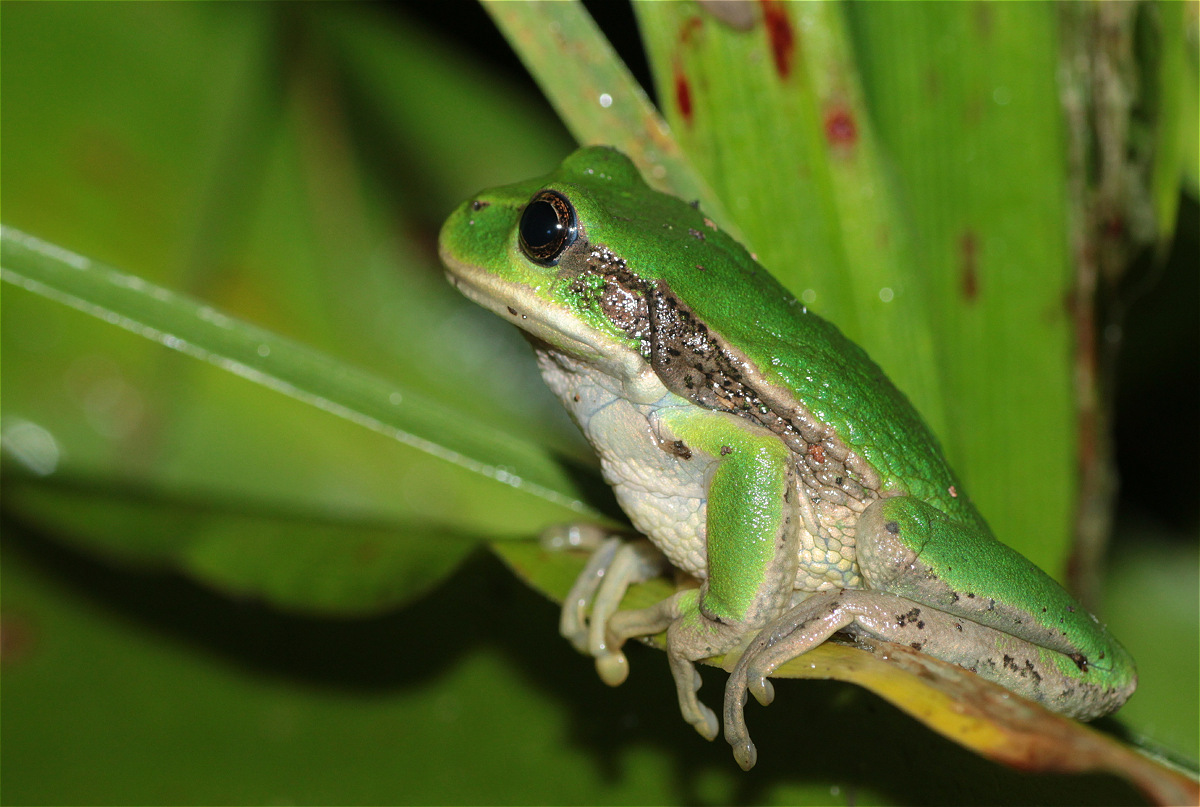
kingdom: Animalia
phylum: Chordata
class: Amphibia
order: Anura
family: Hemiphractidae
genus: Gastrotheca
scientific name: Gastrotheca cuencana
